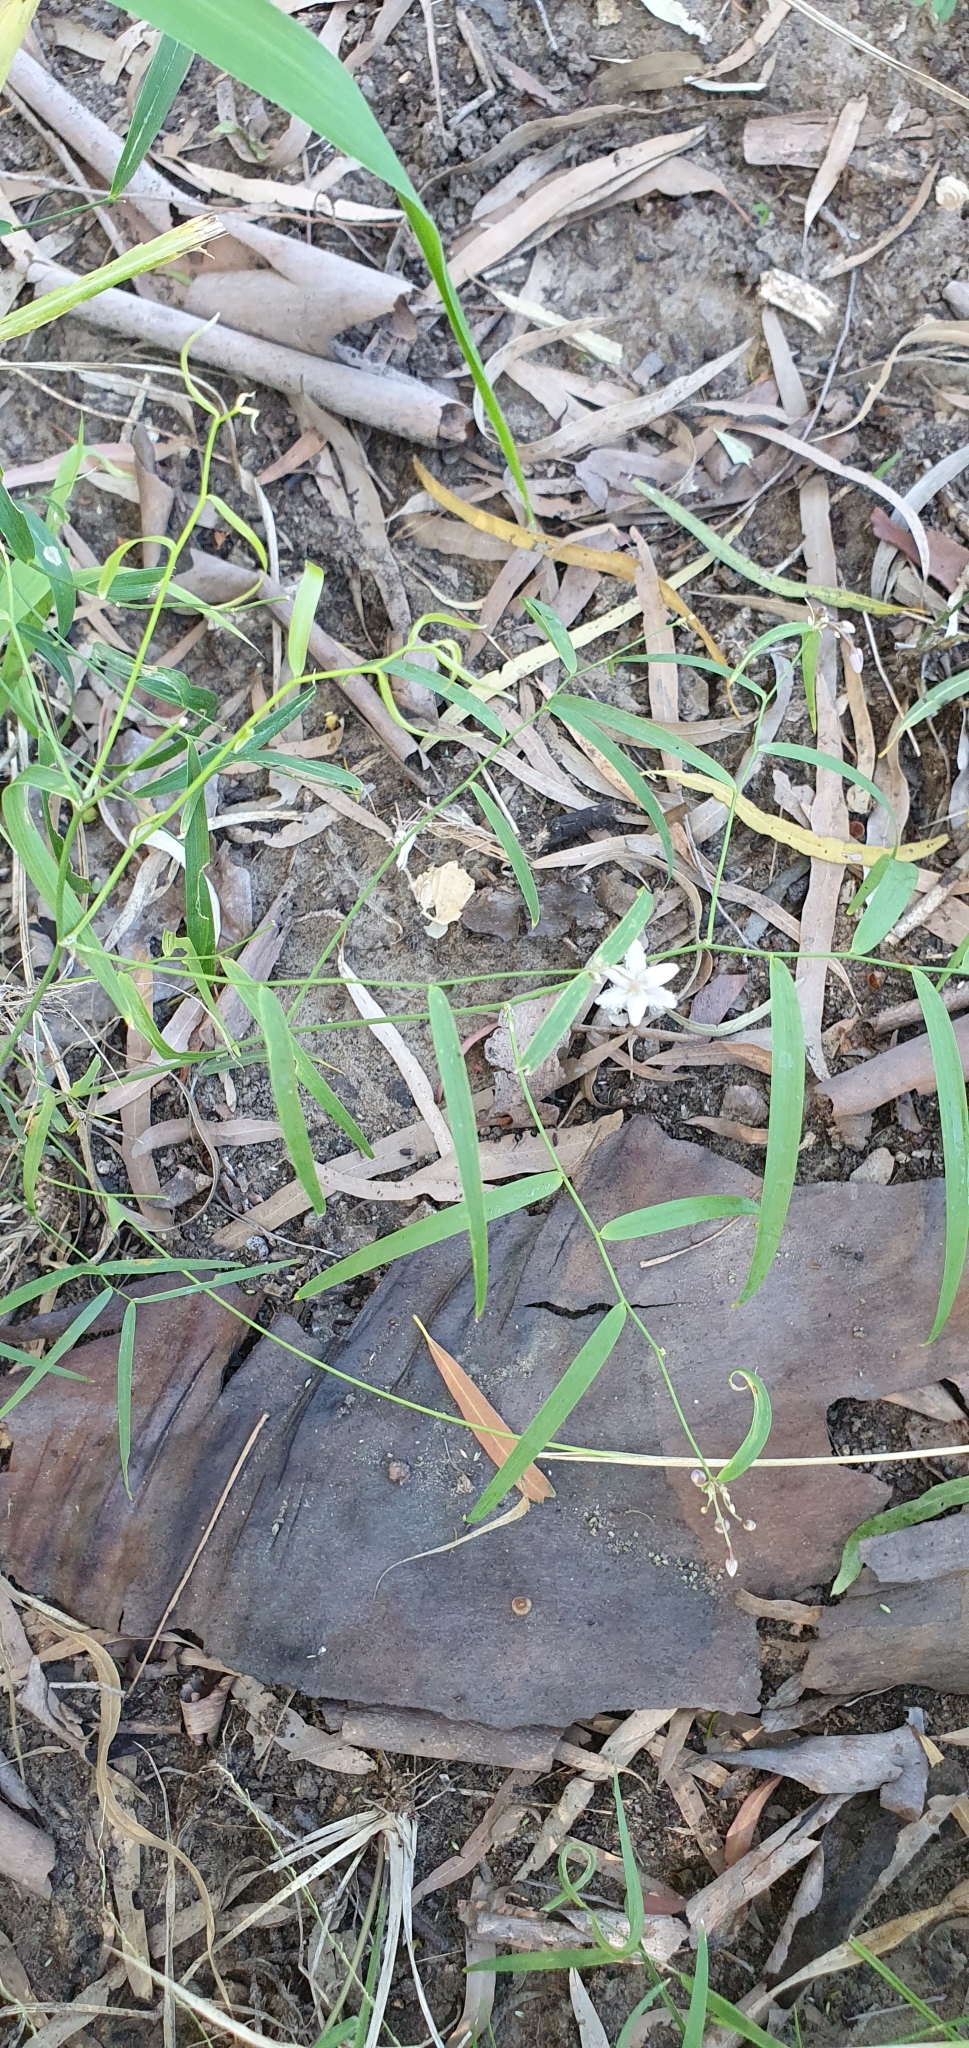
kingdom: Plantae
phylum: Tracheophyta
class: Liliopsida
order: Asparagales
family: Asparagaceae
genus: Eustrephus
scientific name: Eustrephus latifolius
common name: Orangevine
